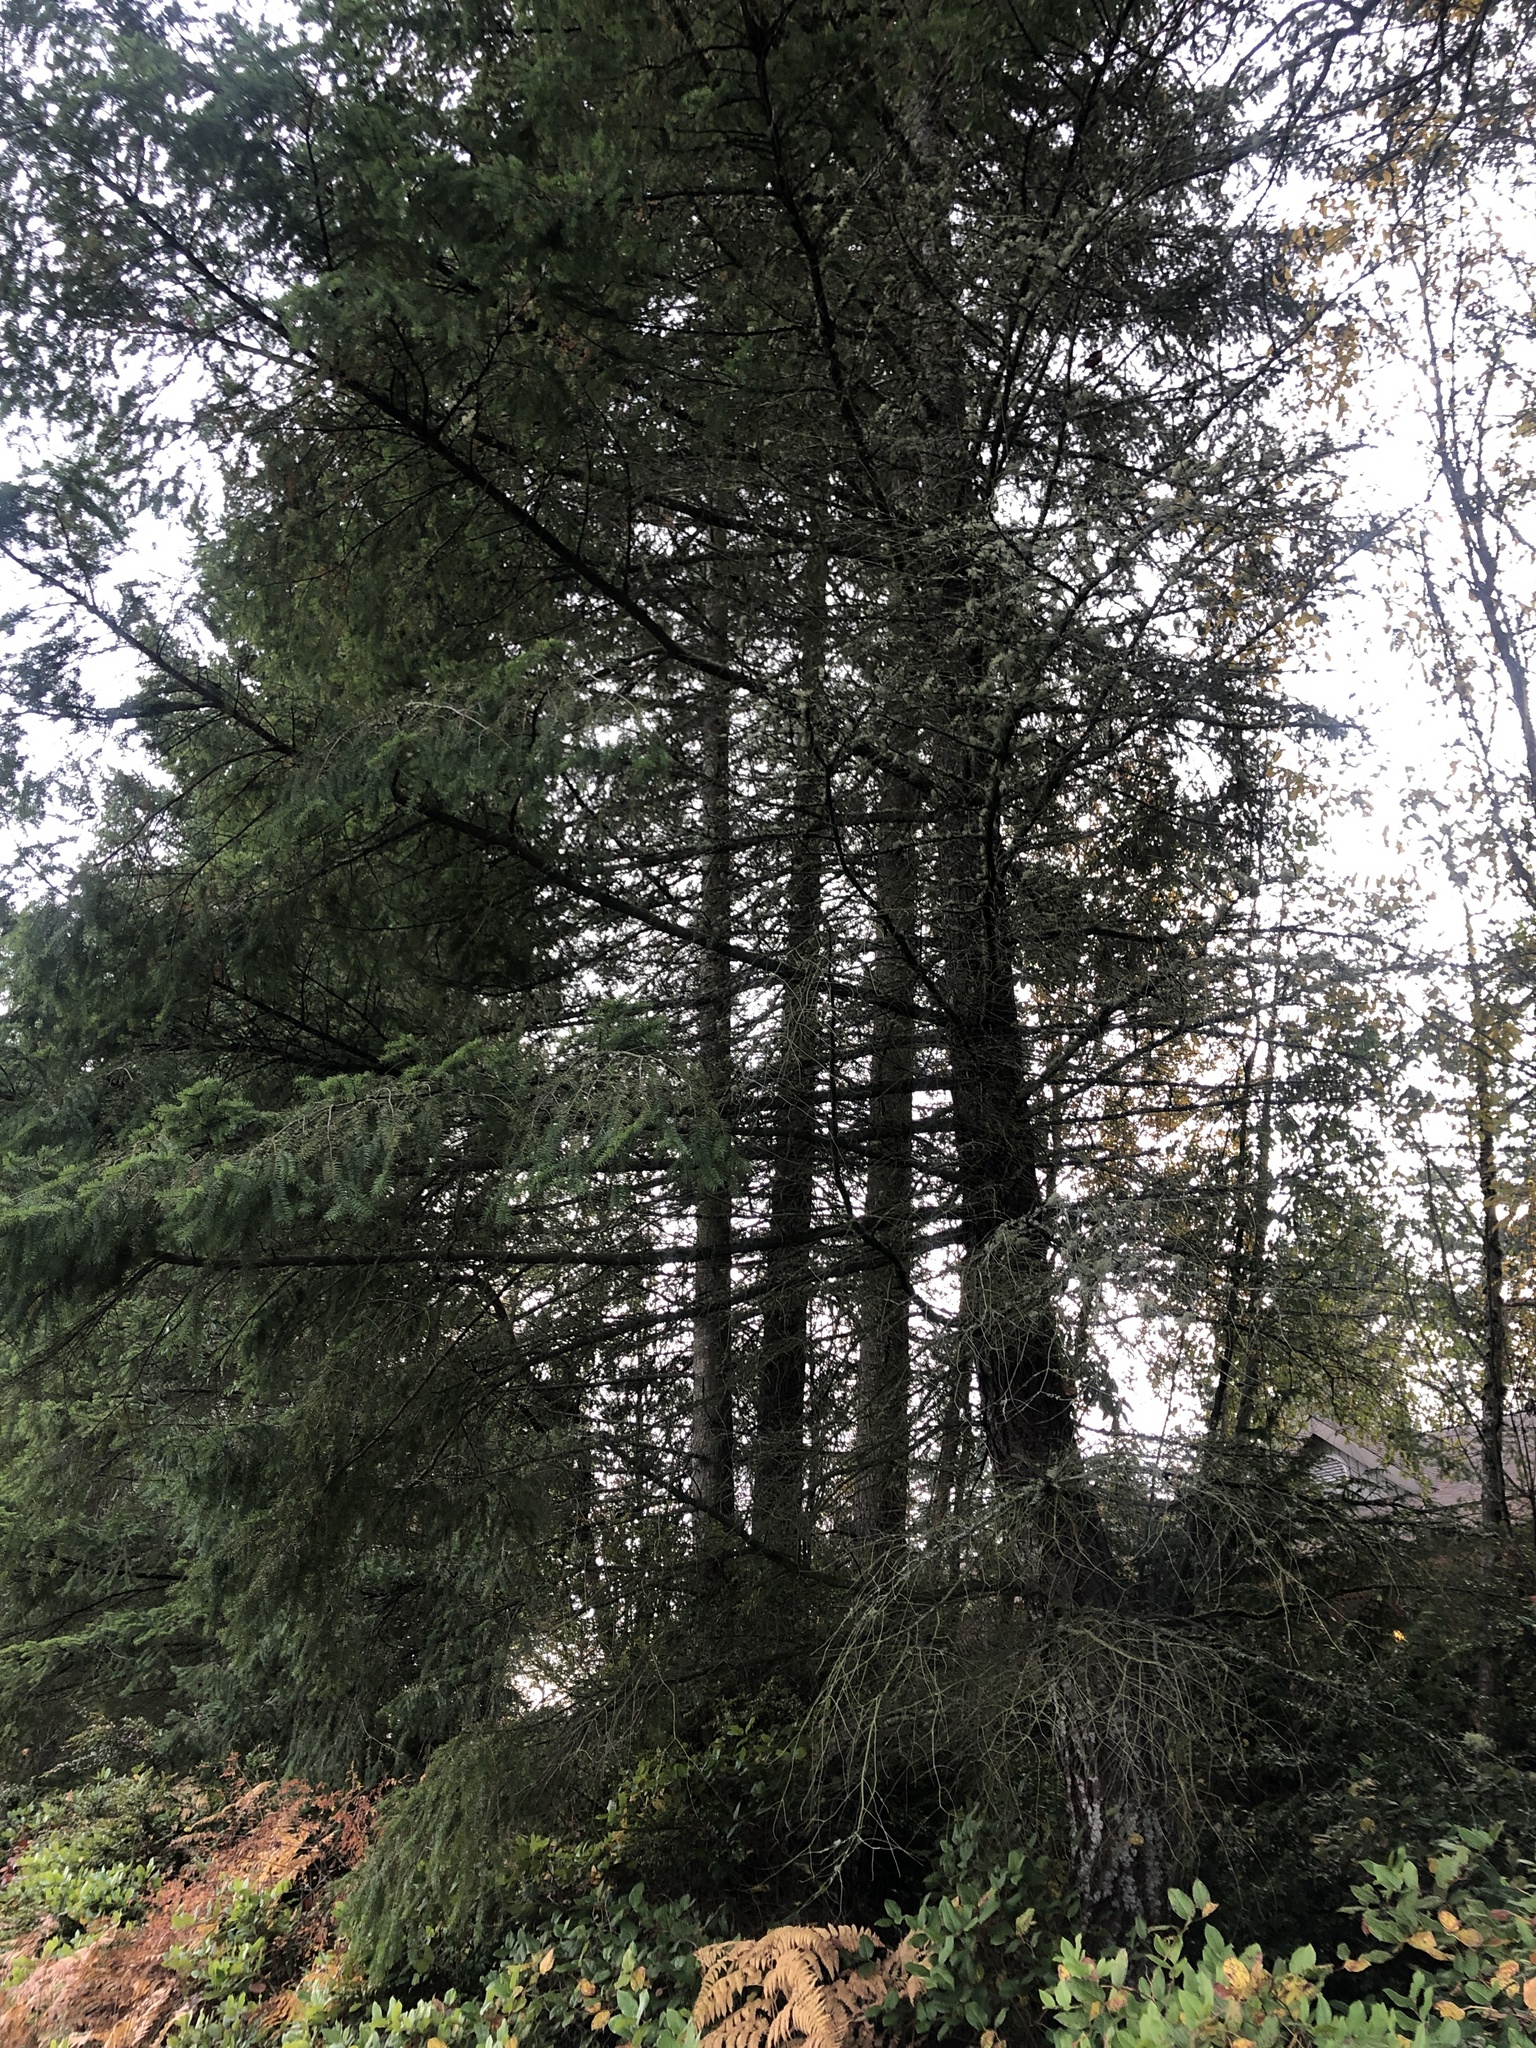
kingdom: Plantae
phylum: Tracheophyta
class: Pinopsida
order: Pinales
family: Pinaceae
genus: Pseudotsuga
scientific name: Pseudotsuga menziesii
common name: Douglas fir
